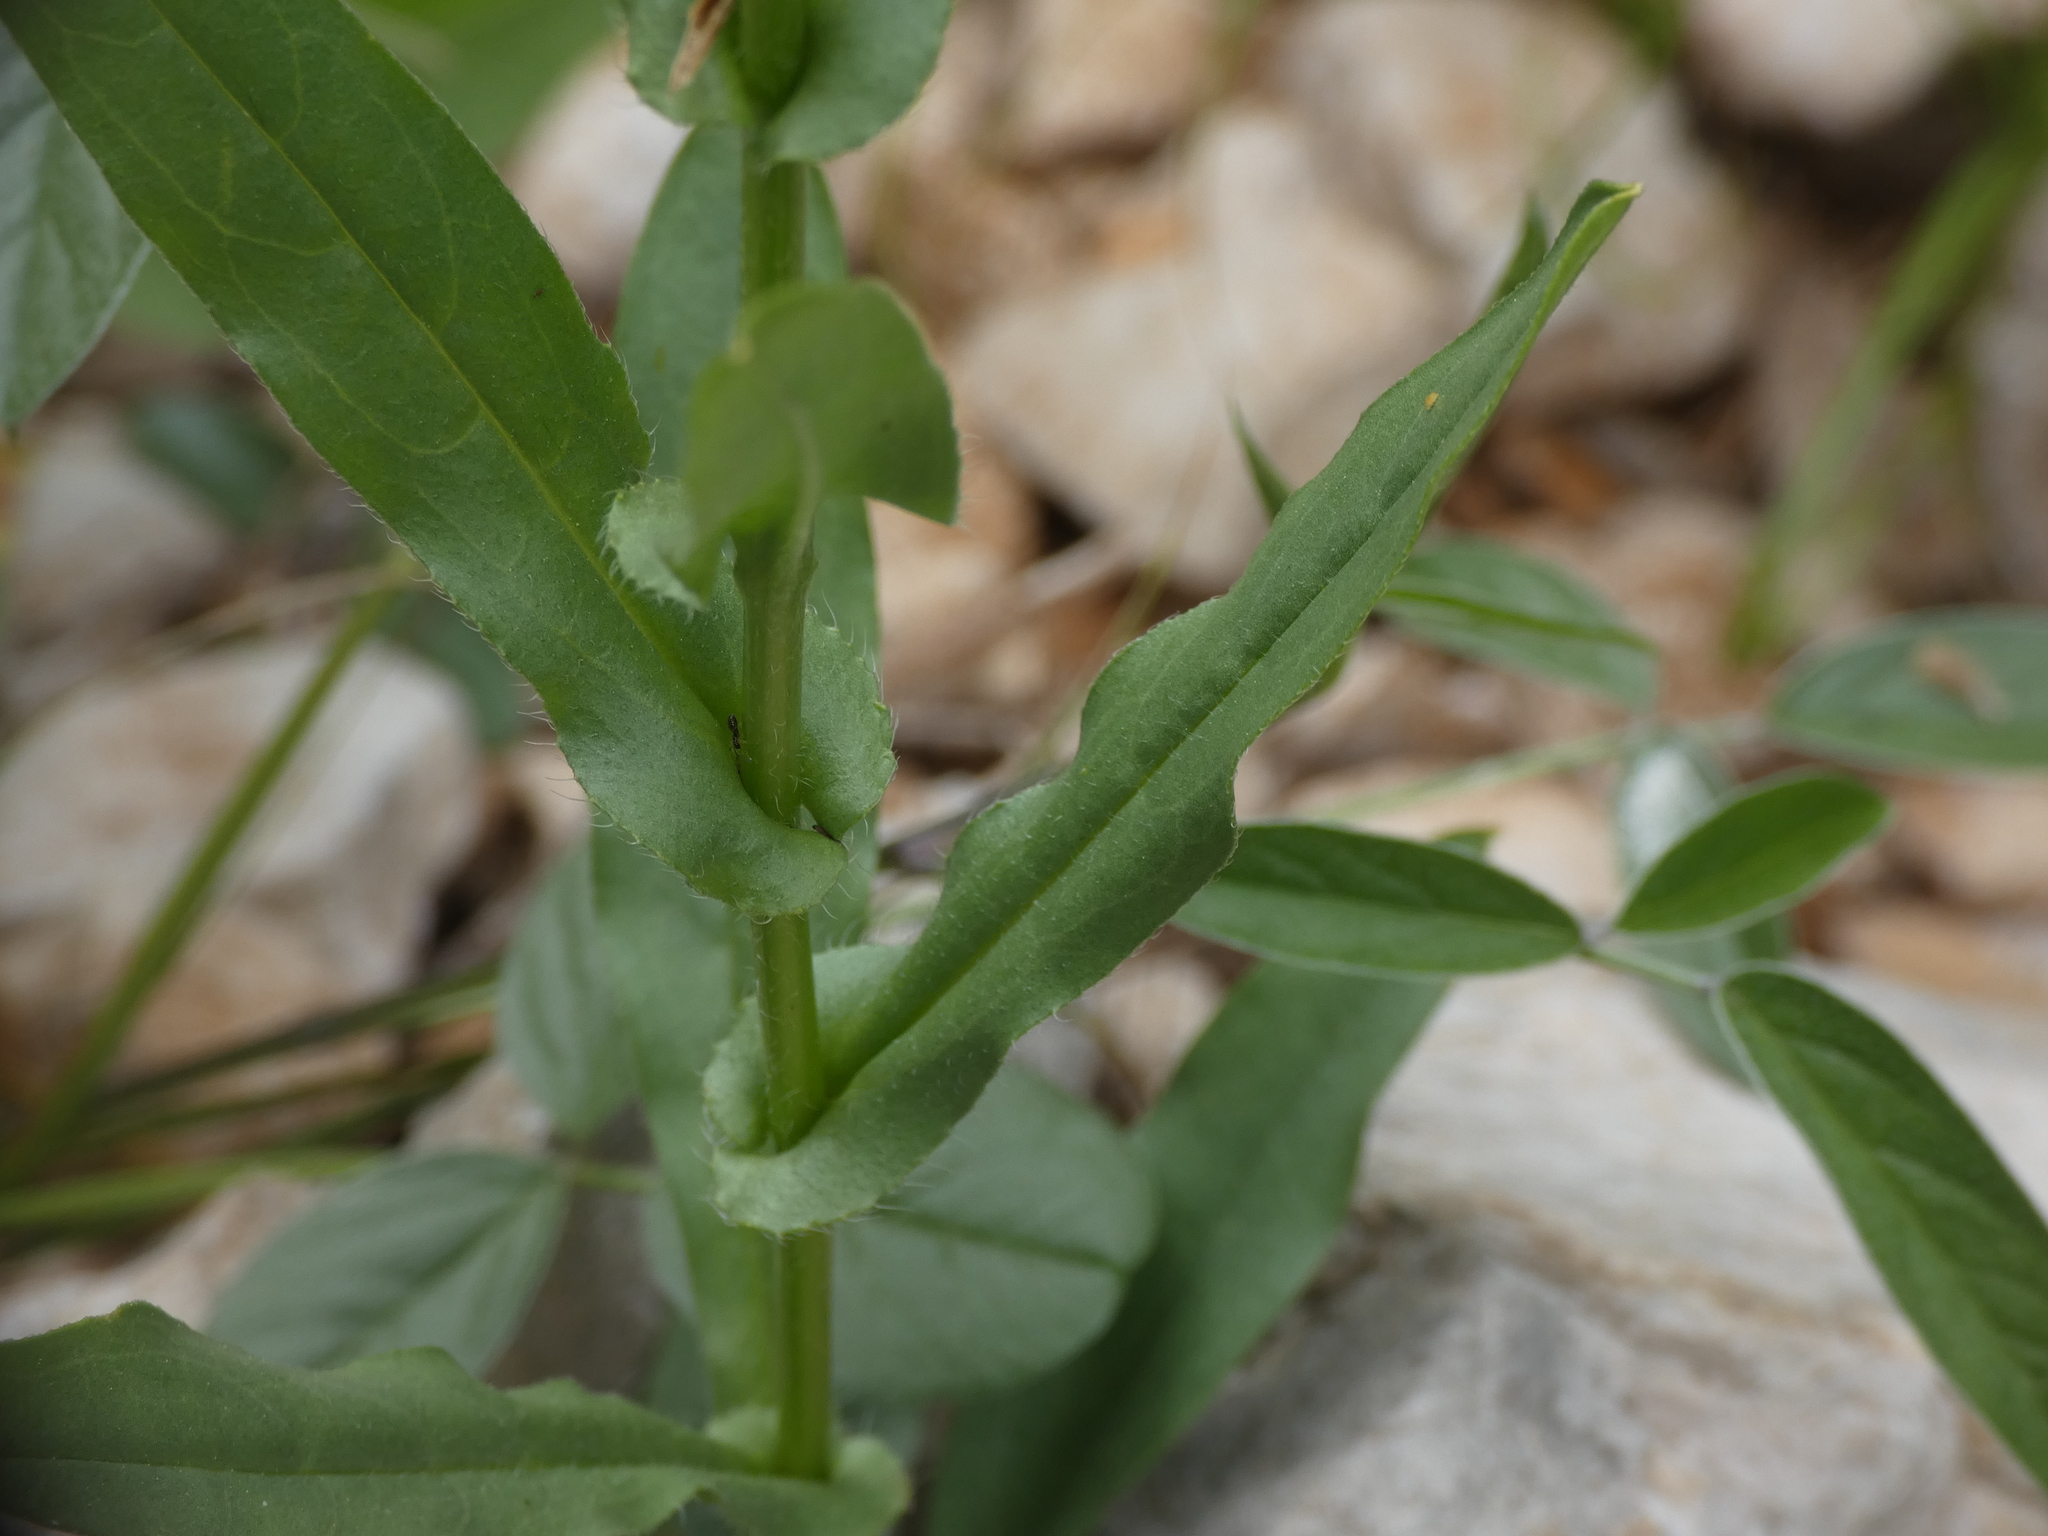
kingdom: Plantae
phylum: Tracheophyta
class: Magnoliopsida
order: Boraginales
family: Boraginaceae
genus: Cynoglossum
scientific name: Cynoglossum pustulatum
